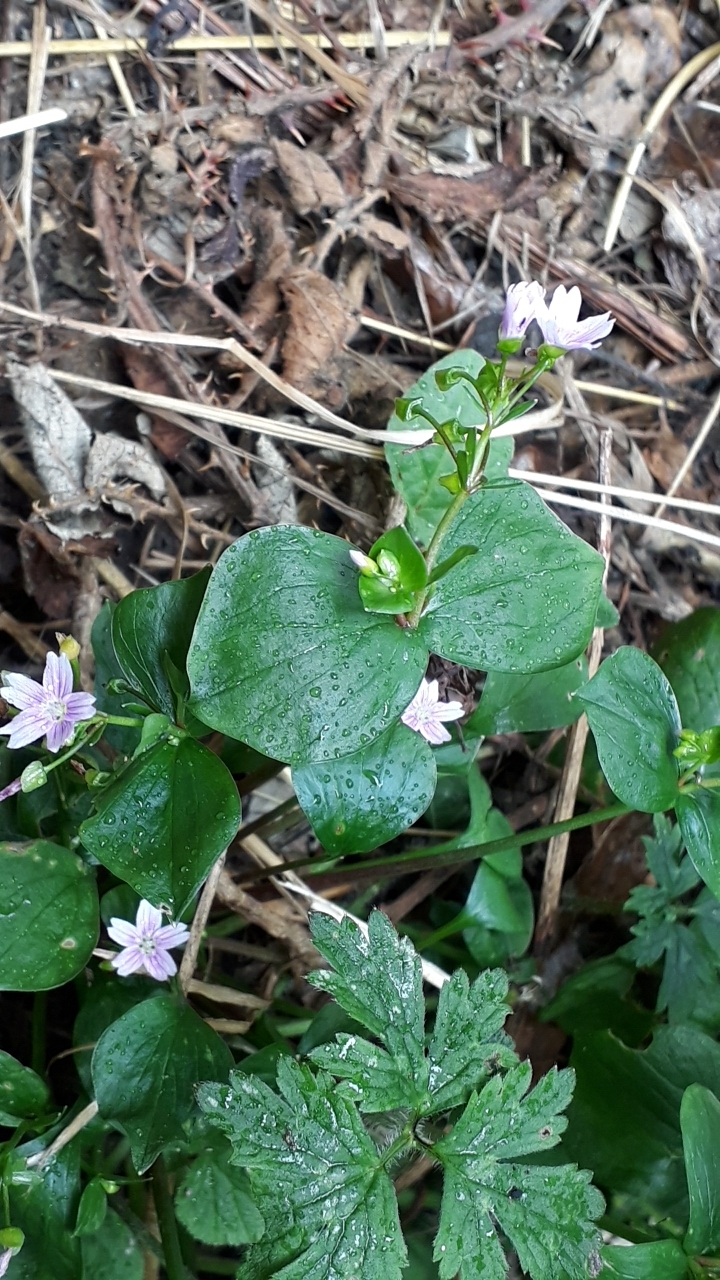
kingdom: Plantae
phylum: Tracheophyta
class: Magnoliopsida
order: Caryophyllales
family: Montiaceae
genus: Claytonia
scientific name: Claytonia sibirica
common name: Pink purslane
